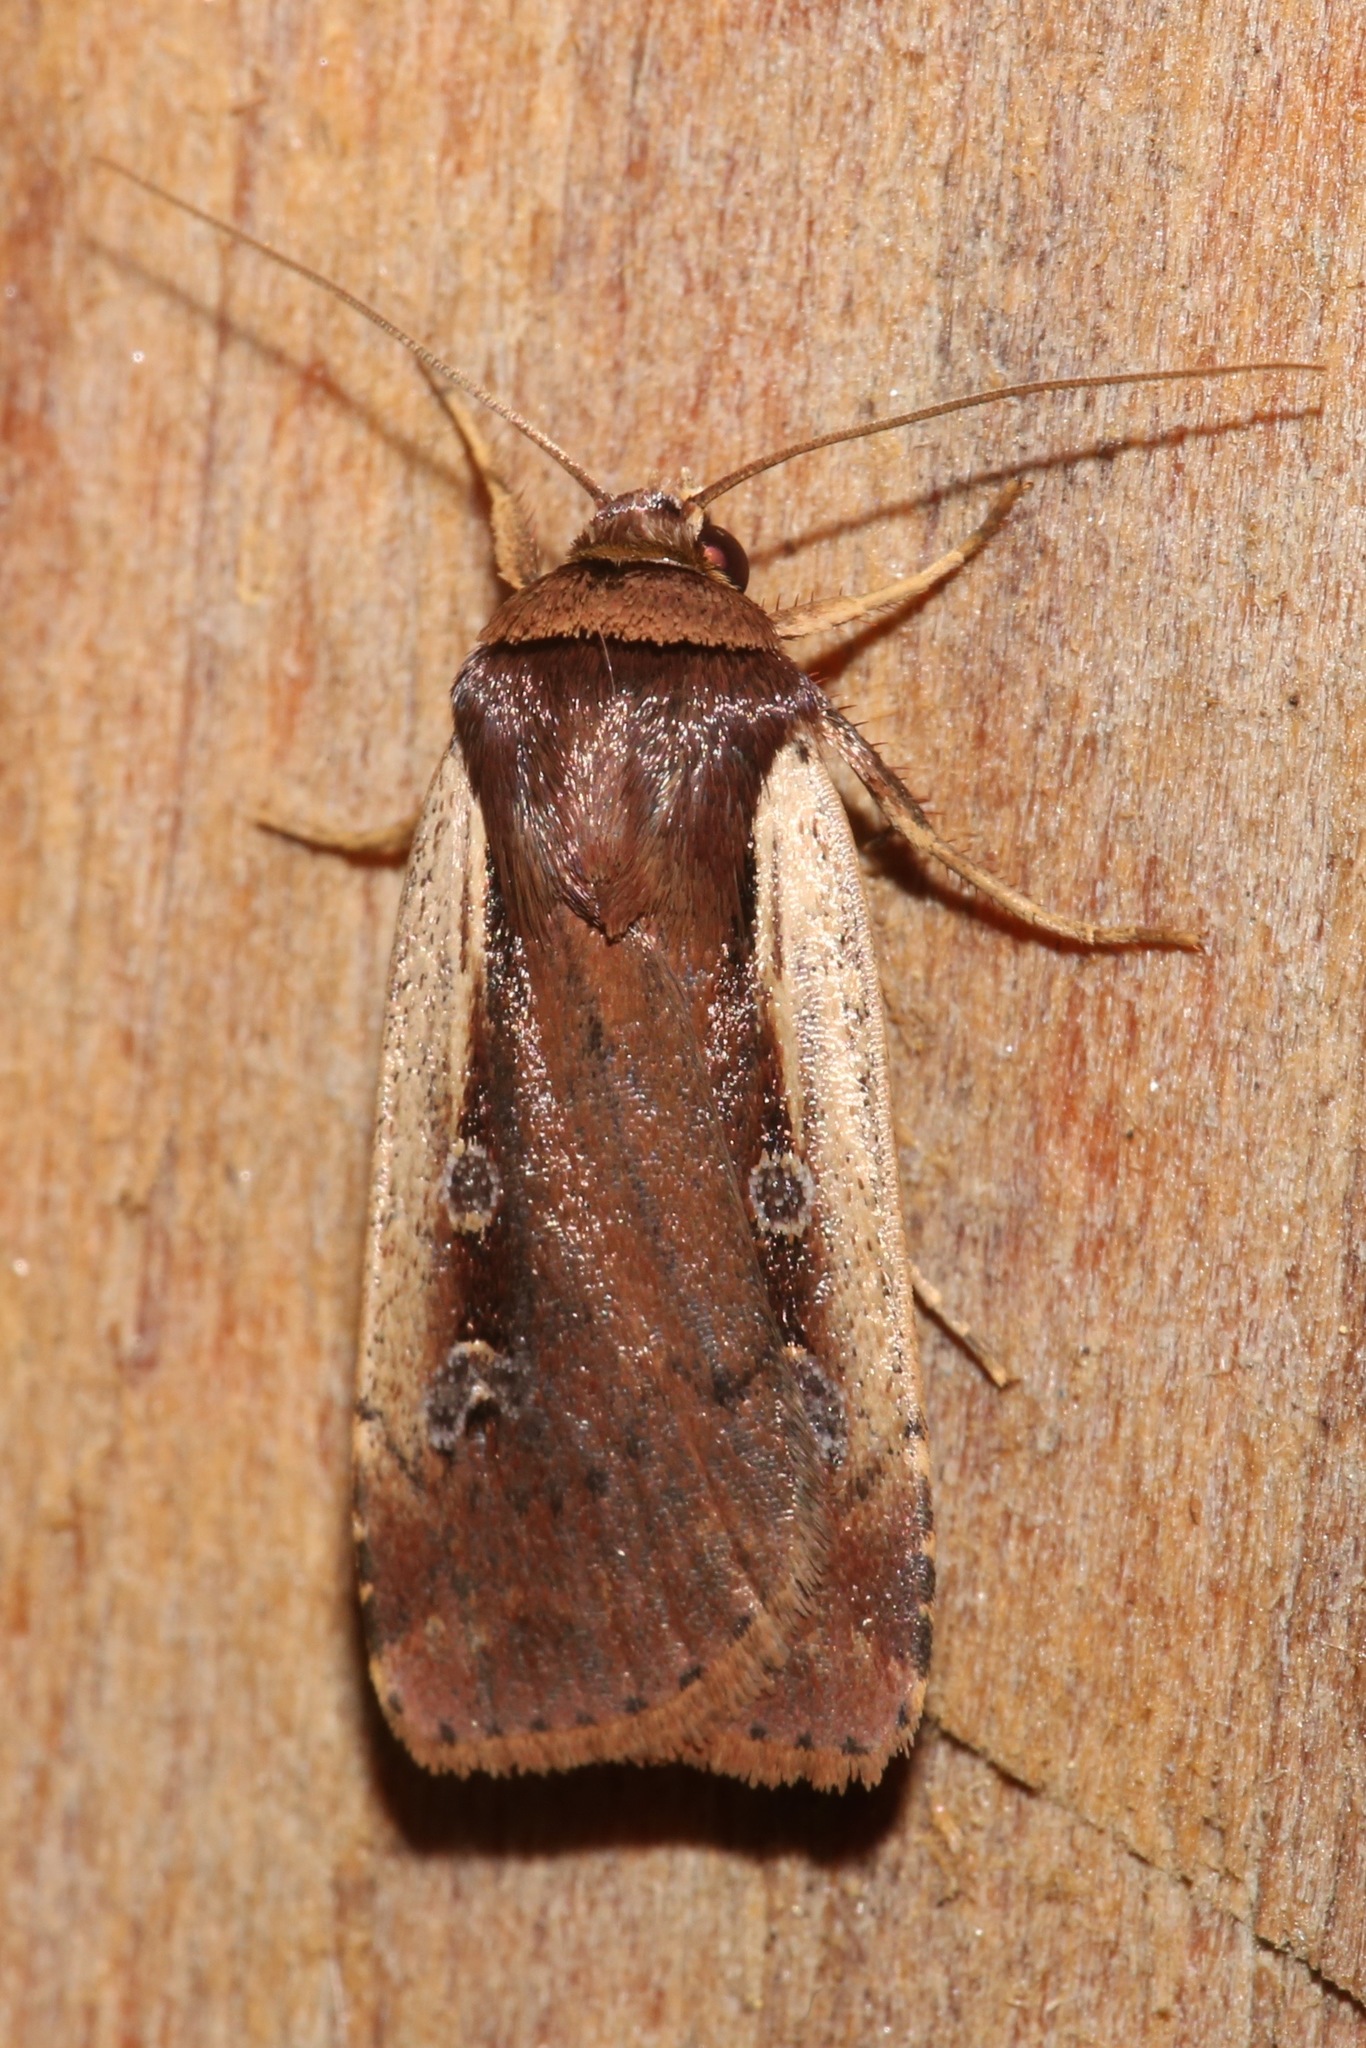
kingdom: Animalia
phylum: Arthropoda
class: Insecta
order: Lepidoptera
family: Noctuidae
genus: Ochropleura
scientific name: Ochropleura implecta
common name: Flame-shouldered dart
